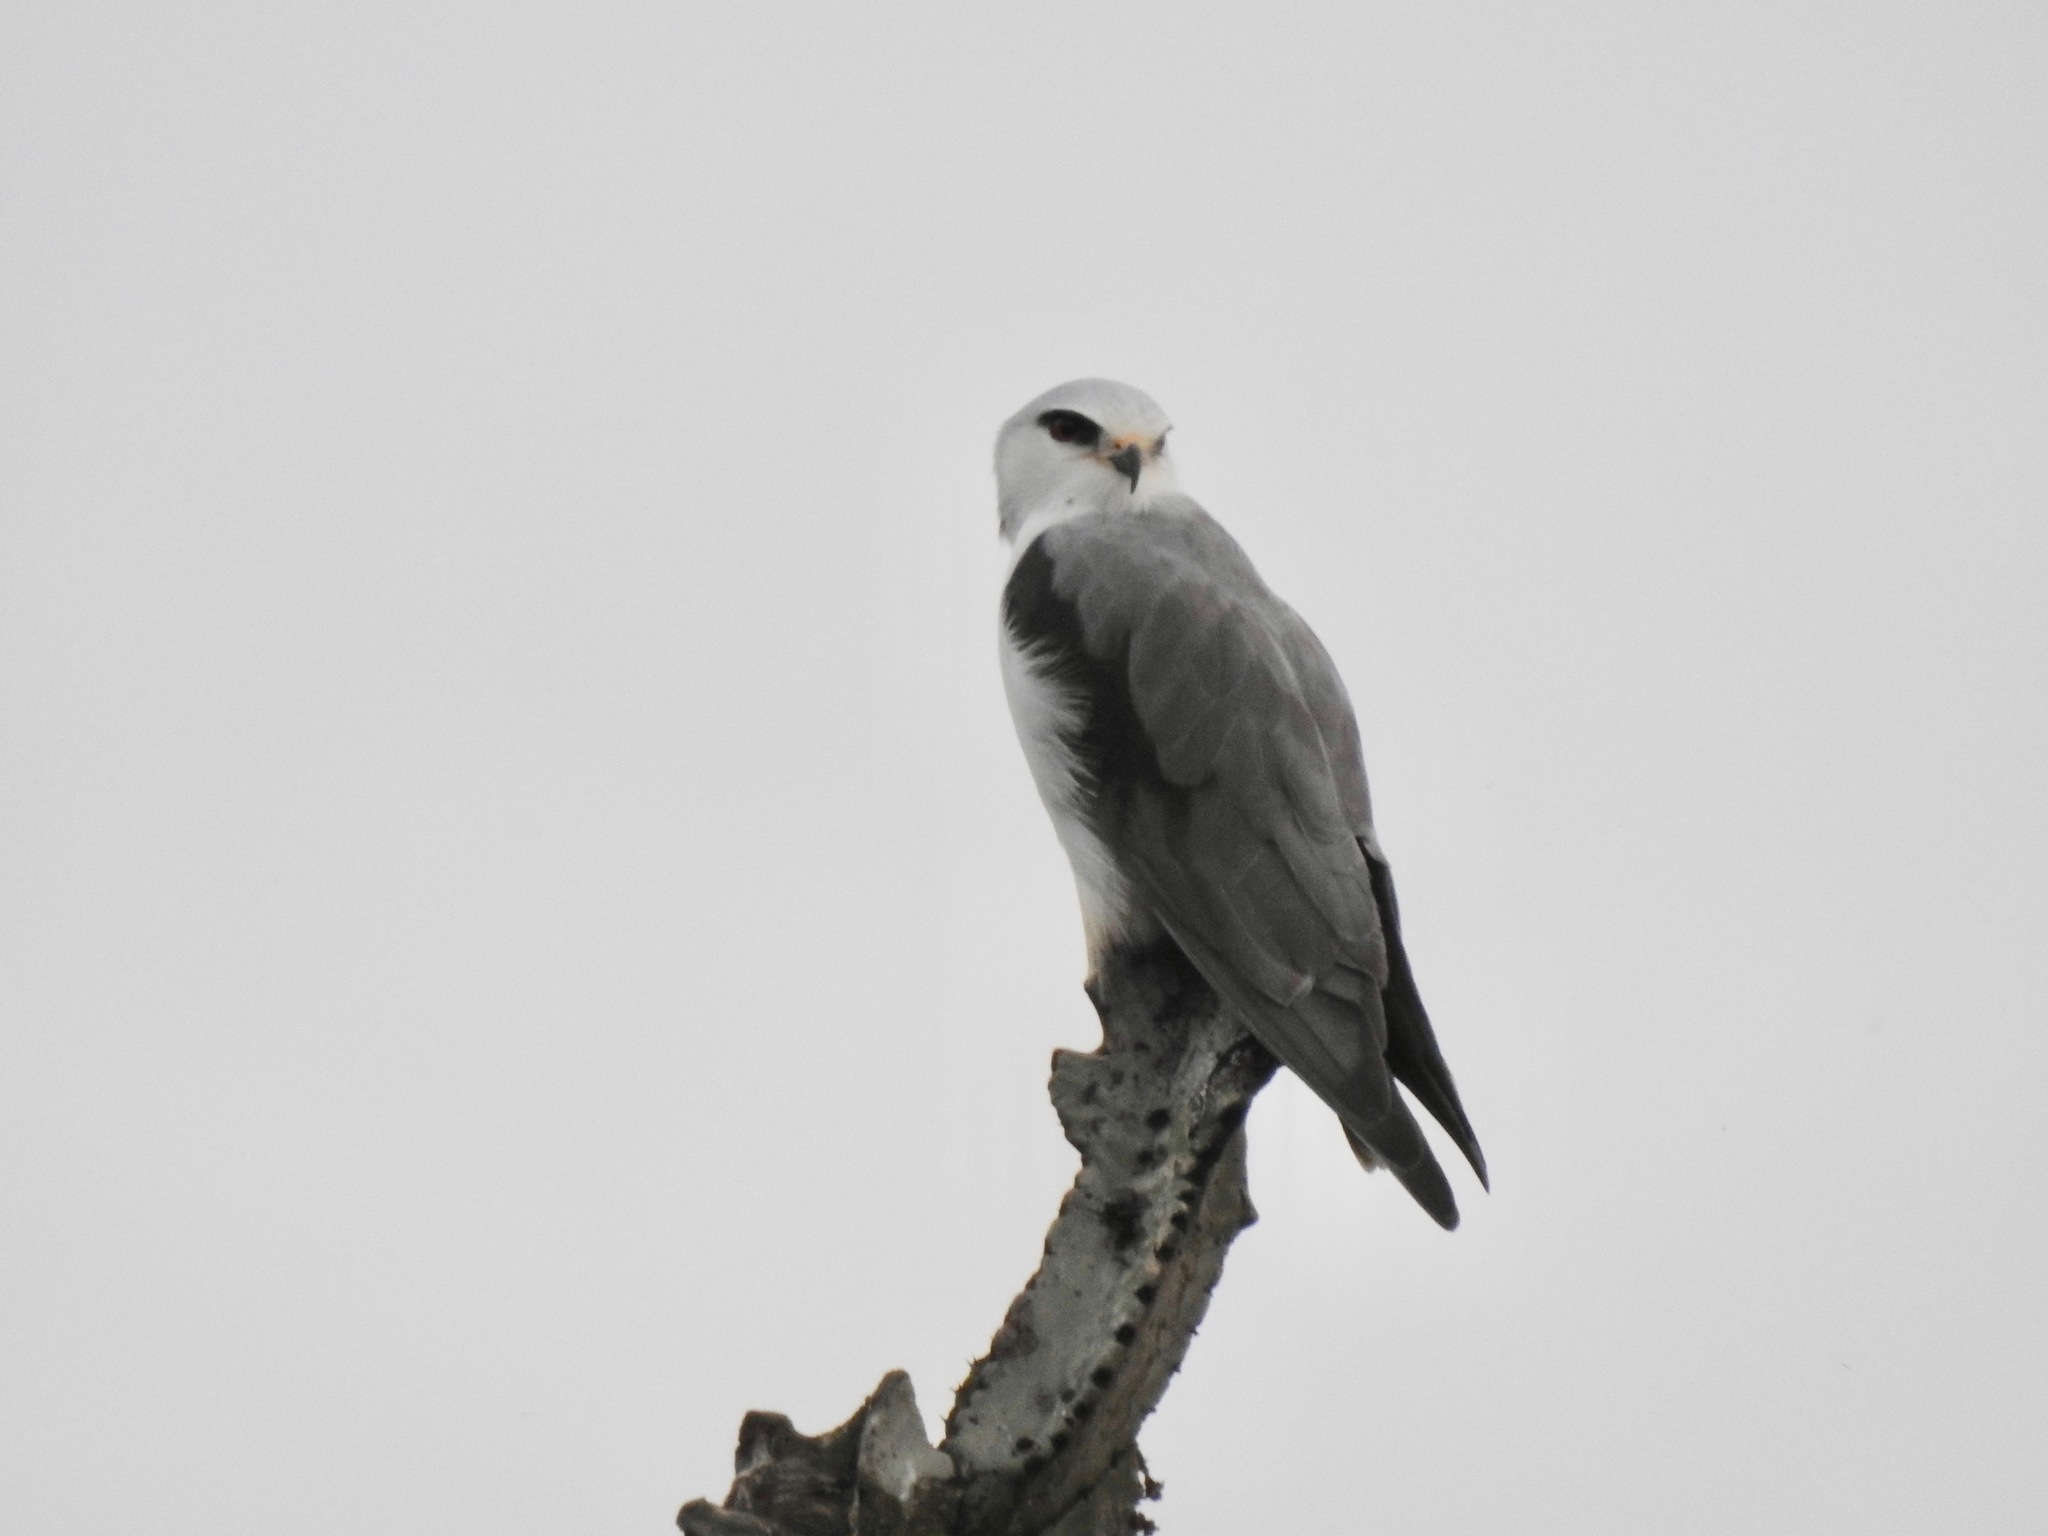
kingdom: Animalia
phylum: Chordata
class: Aves
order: Accipitriformes
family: Accipitridae
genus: Elanus
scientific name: Elanus caeruleus
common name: Black-winged kite
